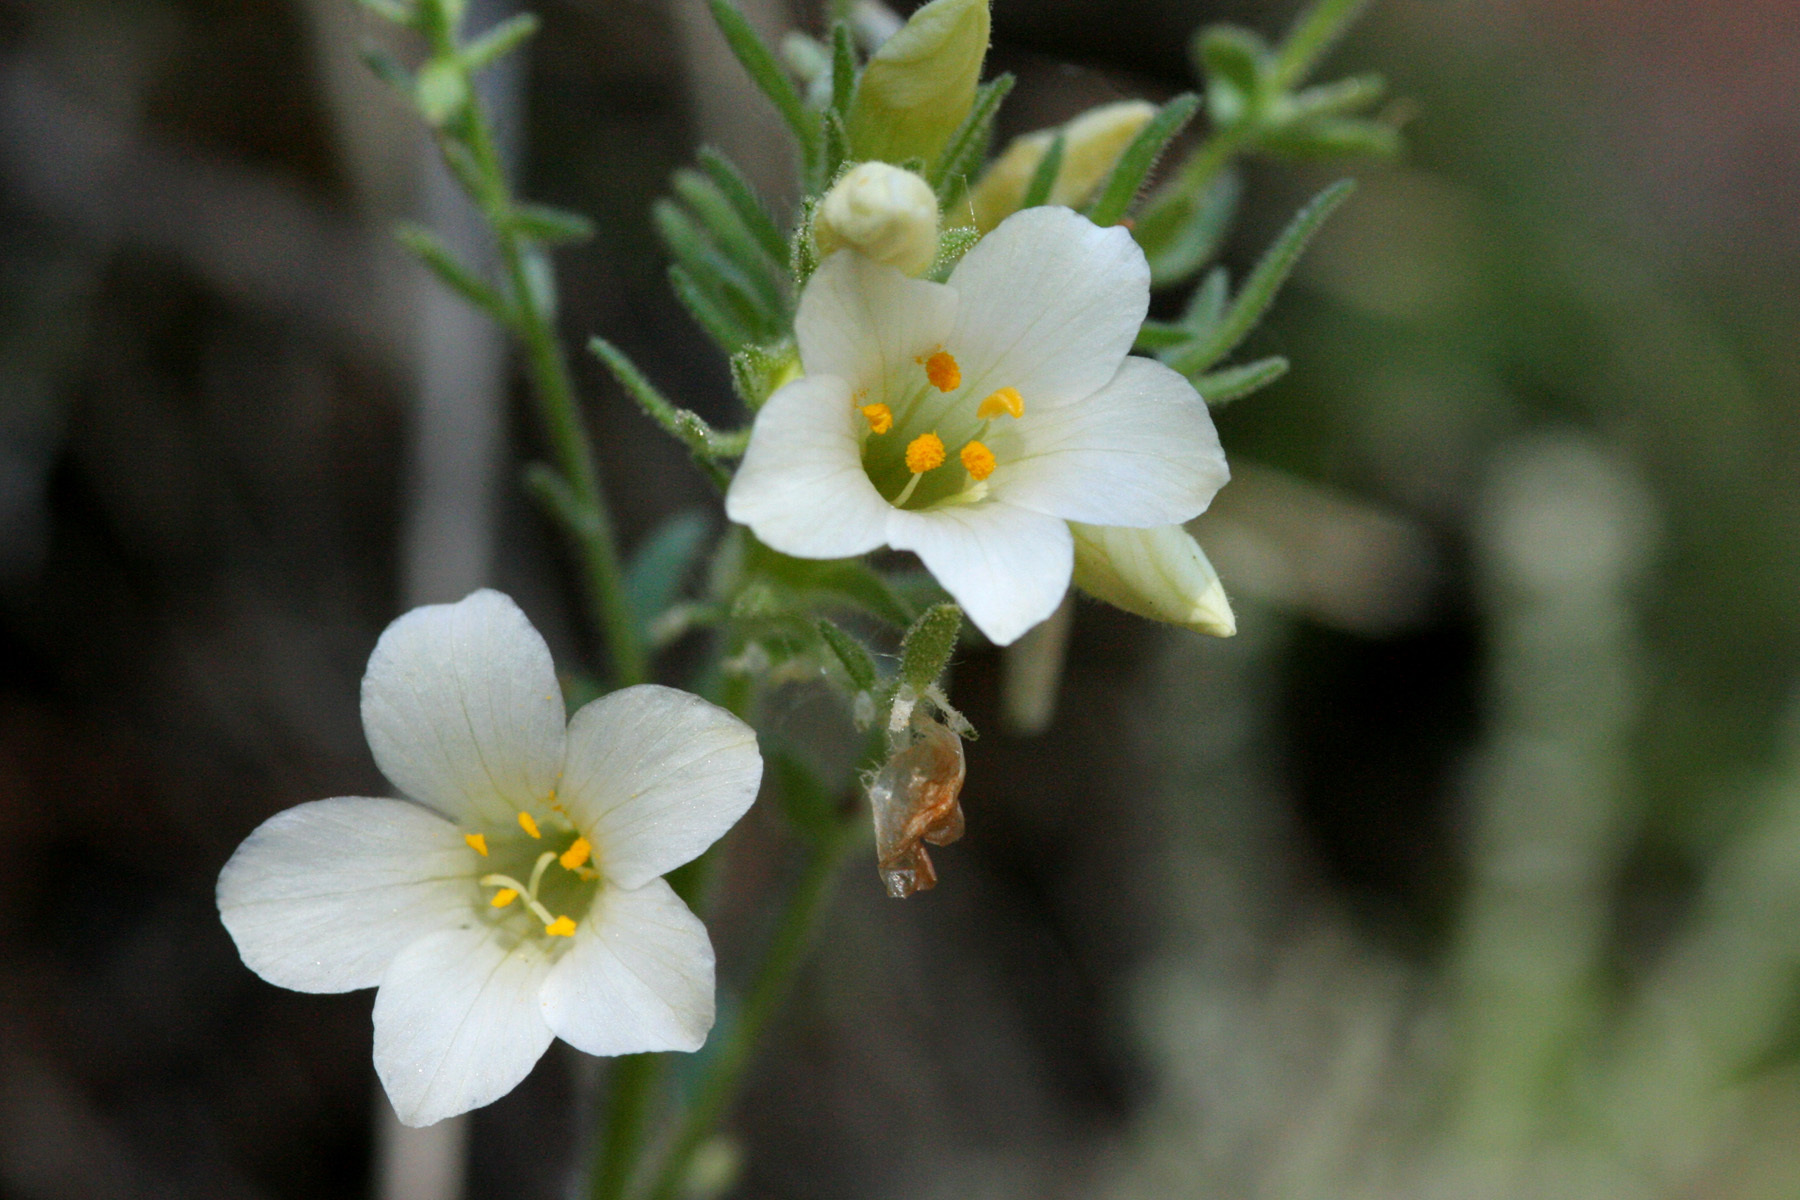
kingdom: Plantae
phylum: Tracheophyta
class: Magnoliopsida
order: Ericales
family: Polemoniaceae
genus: Polemonium
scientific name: Polemonium brandegeei
